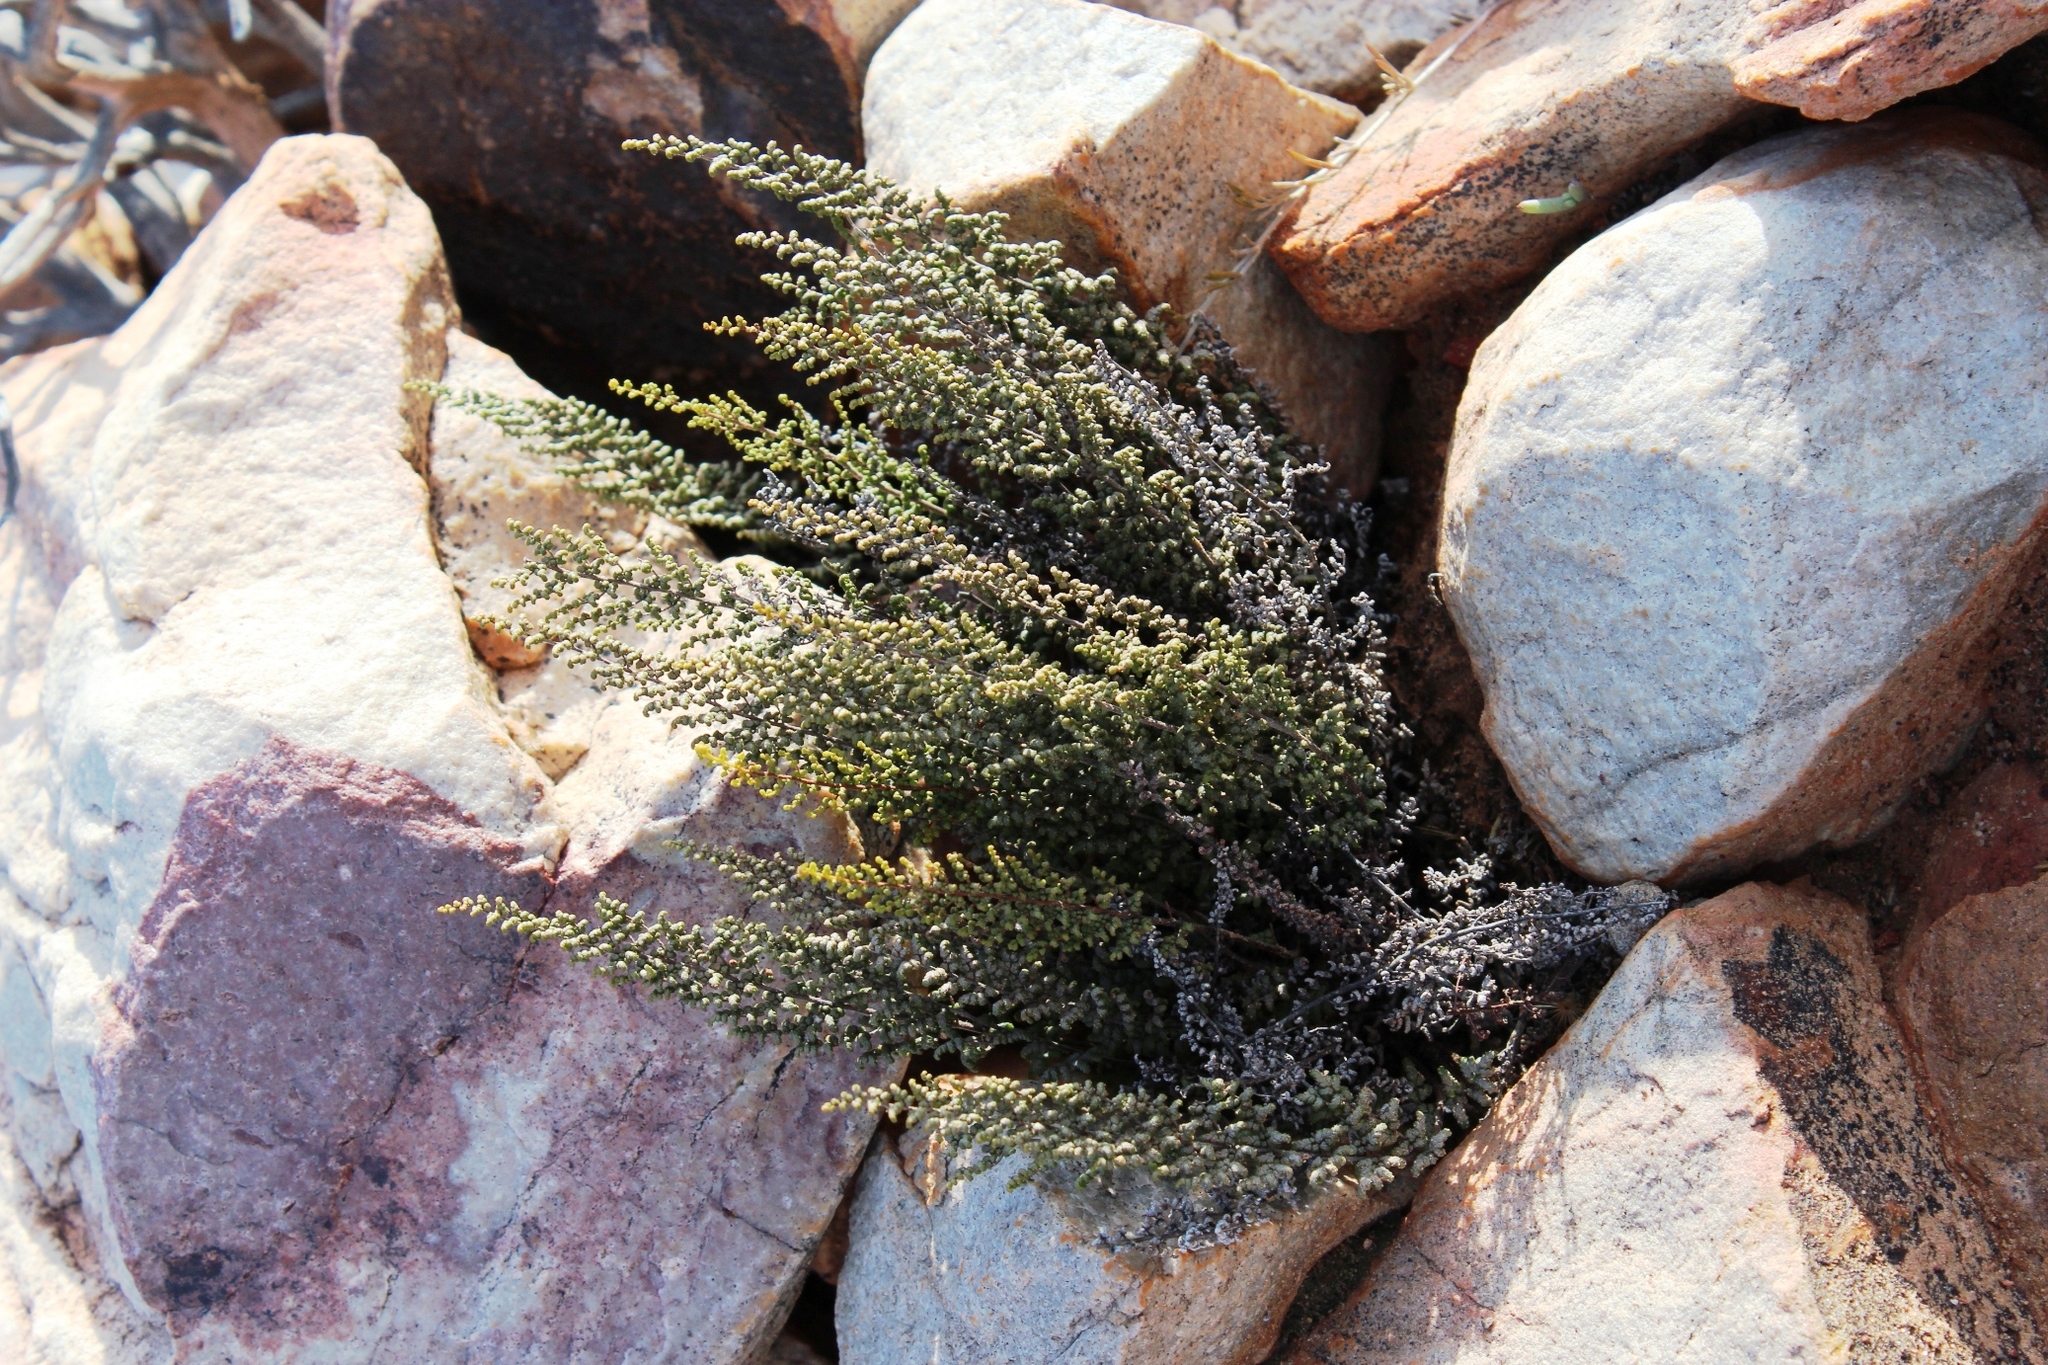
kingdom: Plantae
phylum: Tracheophyta
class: Polypodiopsida
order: Polypodiales
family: Pteridaceae
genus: Cheilanthes
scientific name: Cheilanthes parviloba
